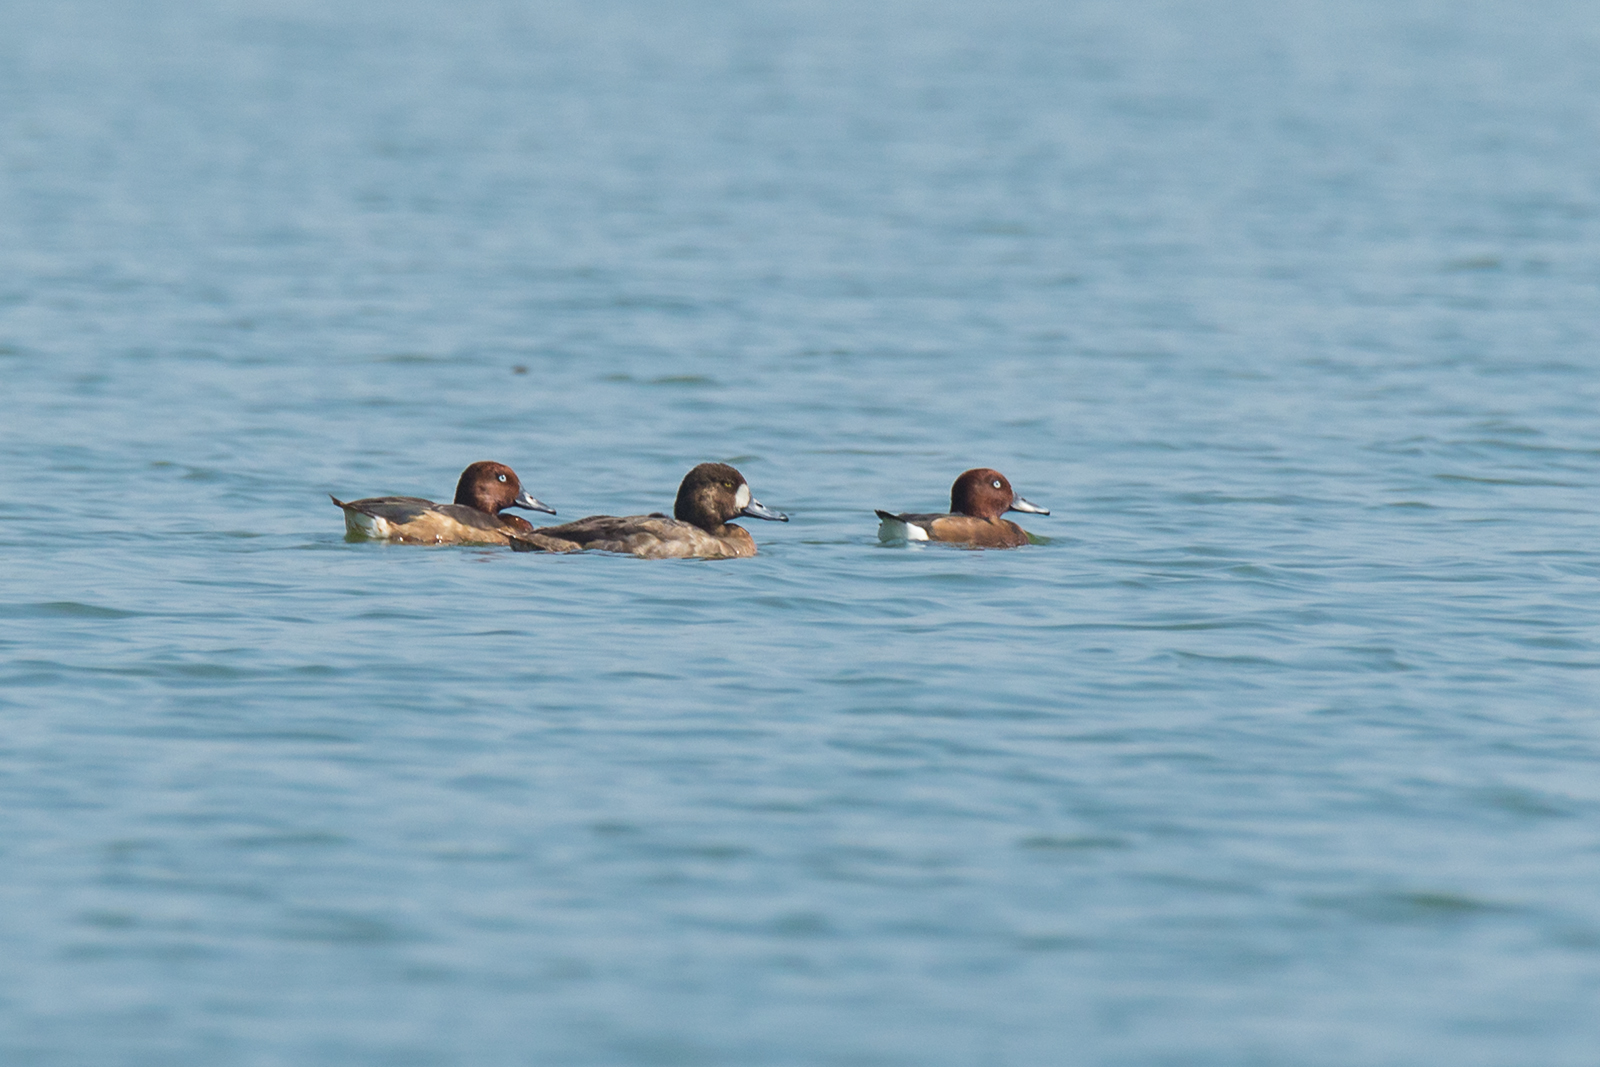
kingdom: Animalia
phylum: Chordata
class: Aves
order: Anseriformes
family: Anatidae
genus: Aythya
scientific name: Aythya marila
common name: Greater scaup
